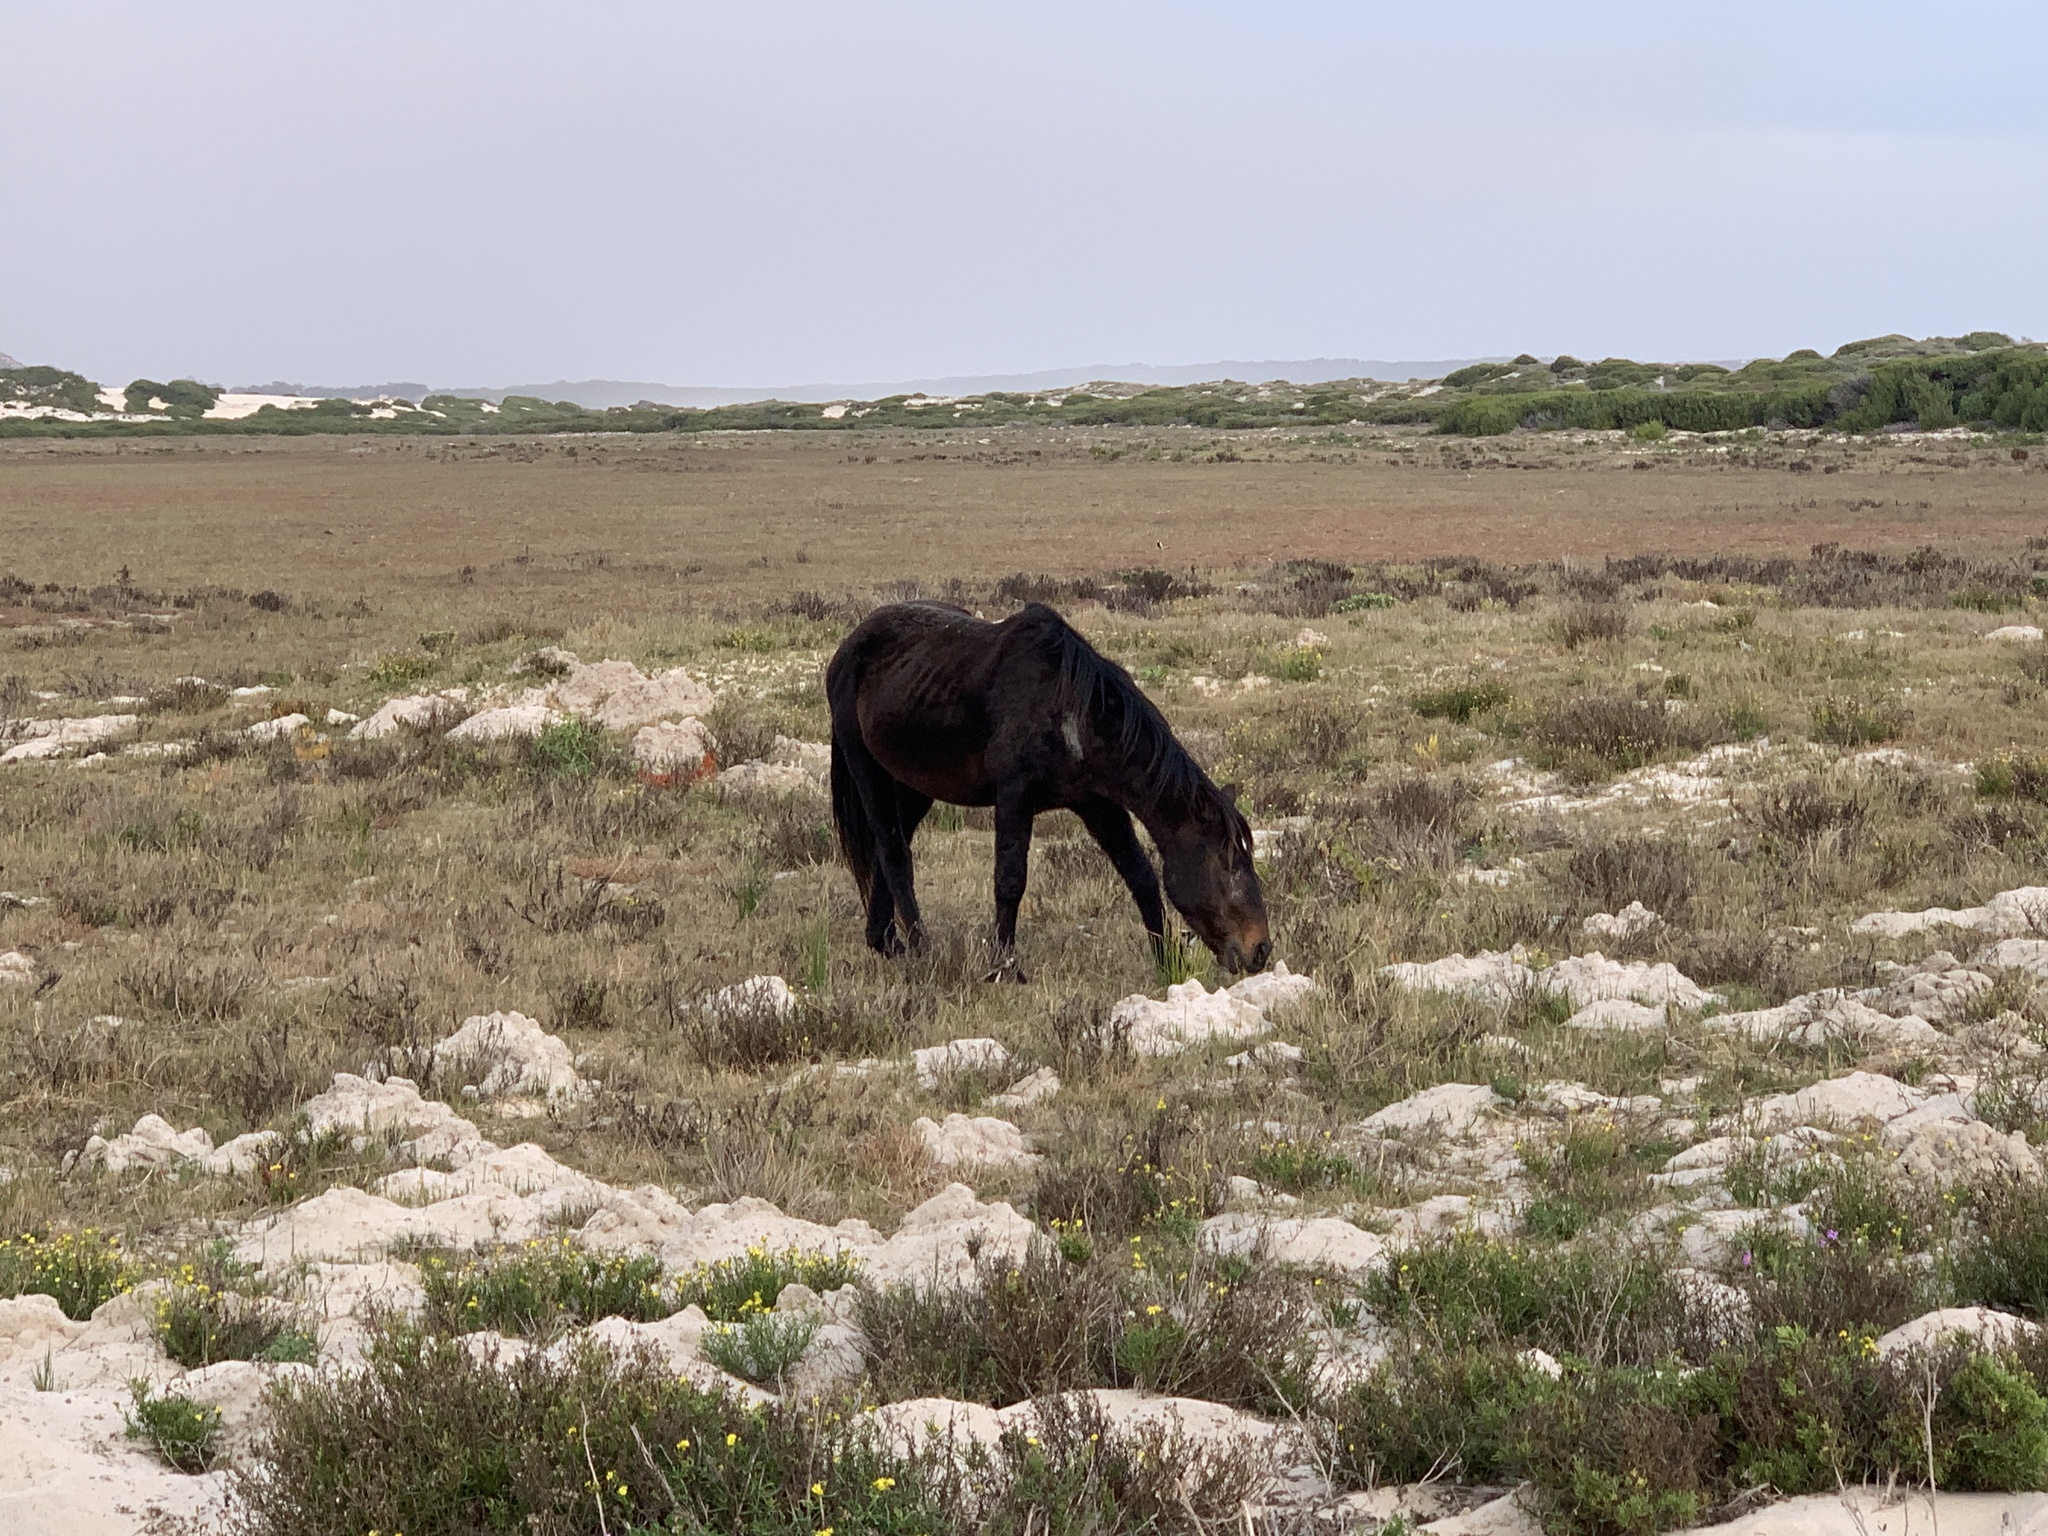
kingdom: Animalia
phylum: Chordata
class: Mammalia
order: Perissodactyla
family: Equidae
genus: Equus
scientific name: Equus caballus
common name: Horse
